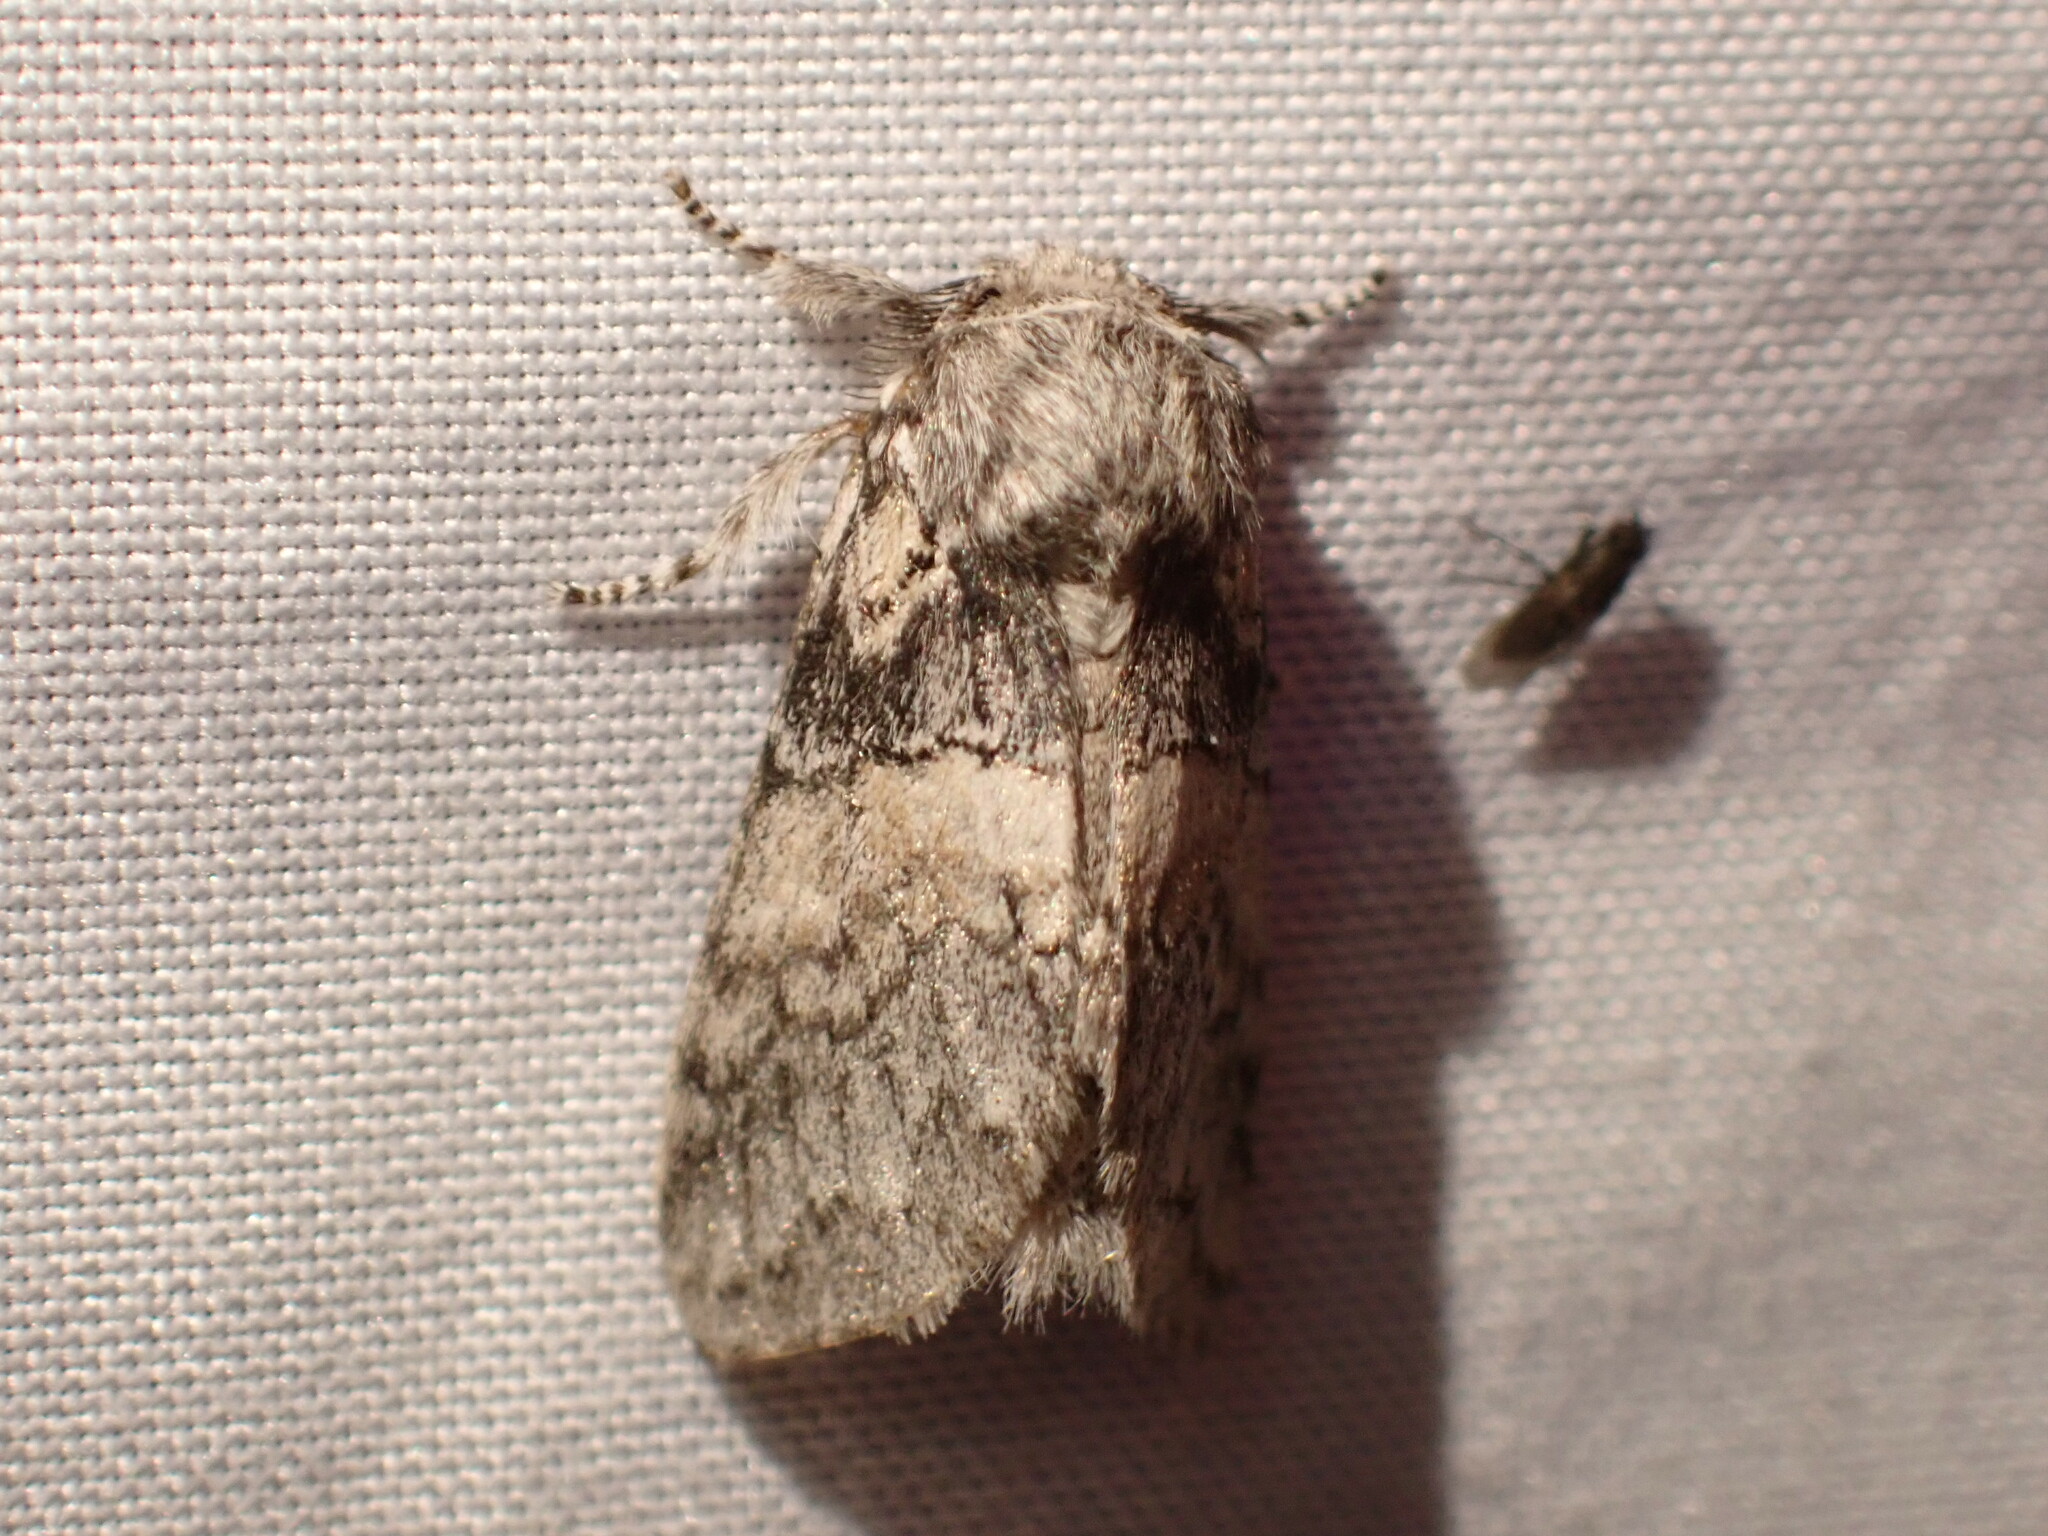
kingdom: Animalia
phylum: Arthropoda
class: Insecta
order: Lepidoptera
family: Notodontidae
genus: Gluphisia
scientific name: Gluphisia septentrionis
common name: Common gluphisia
